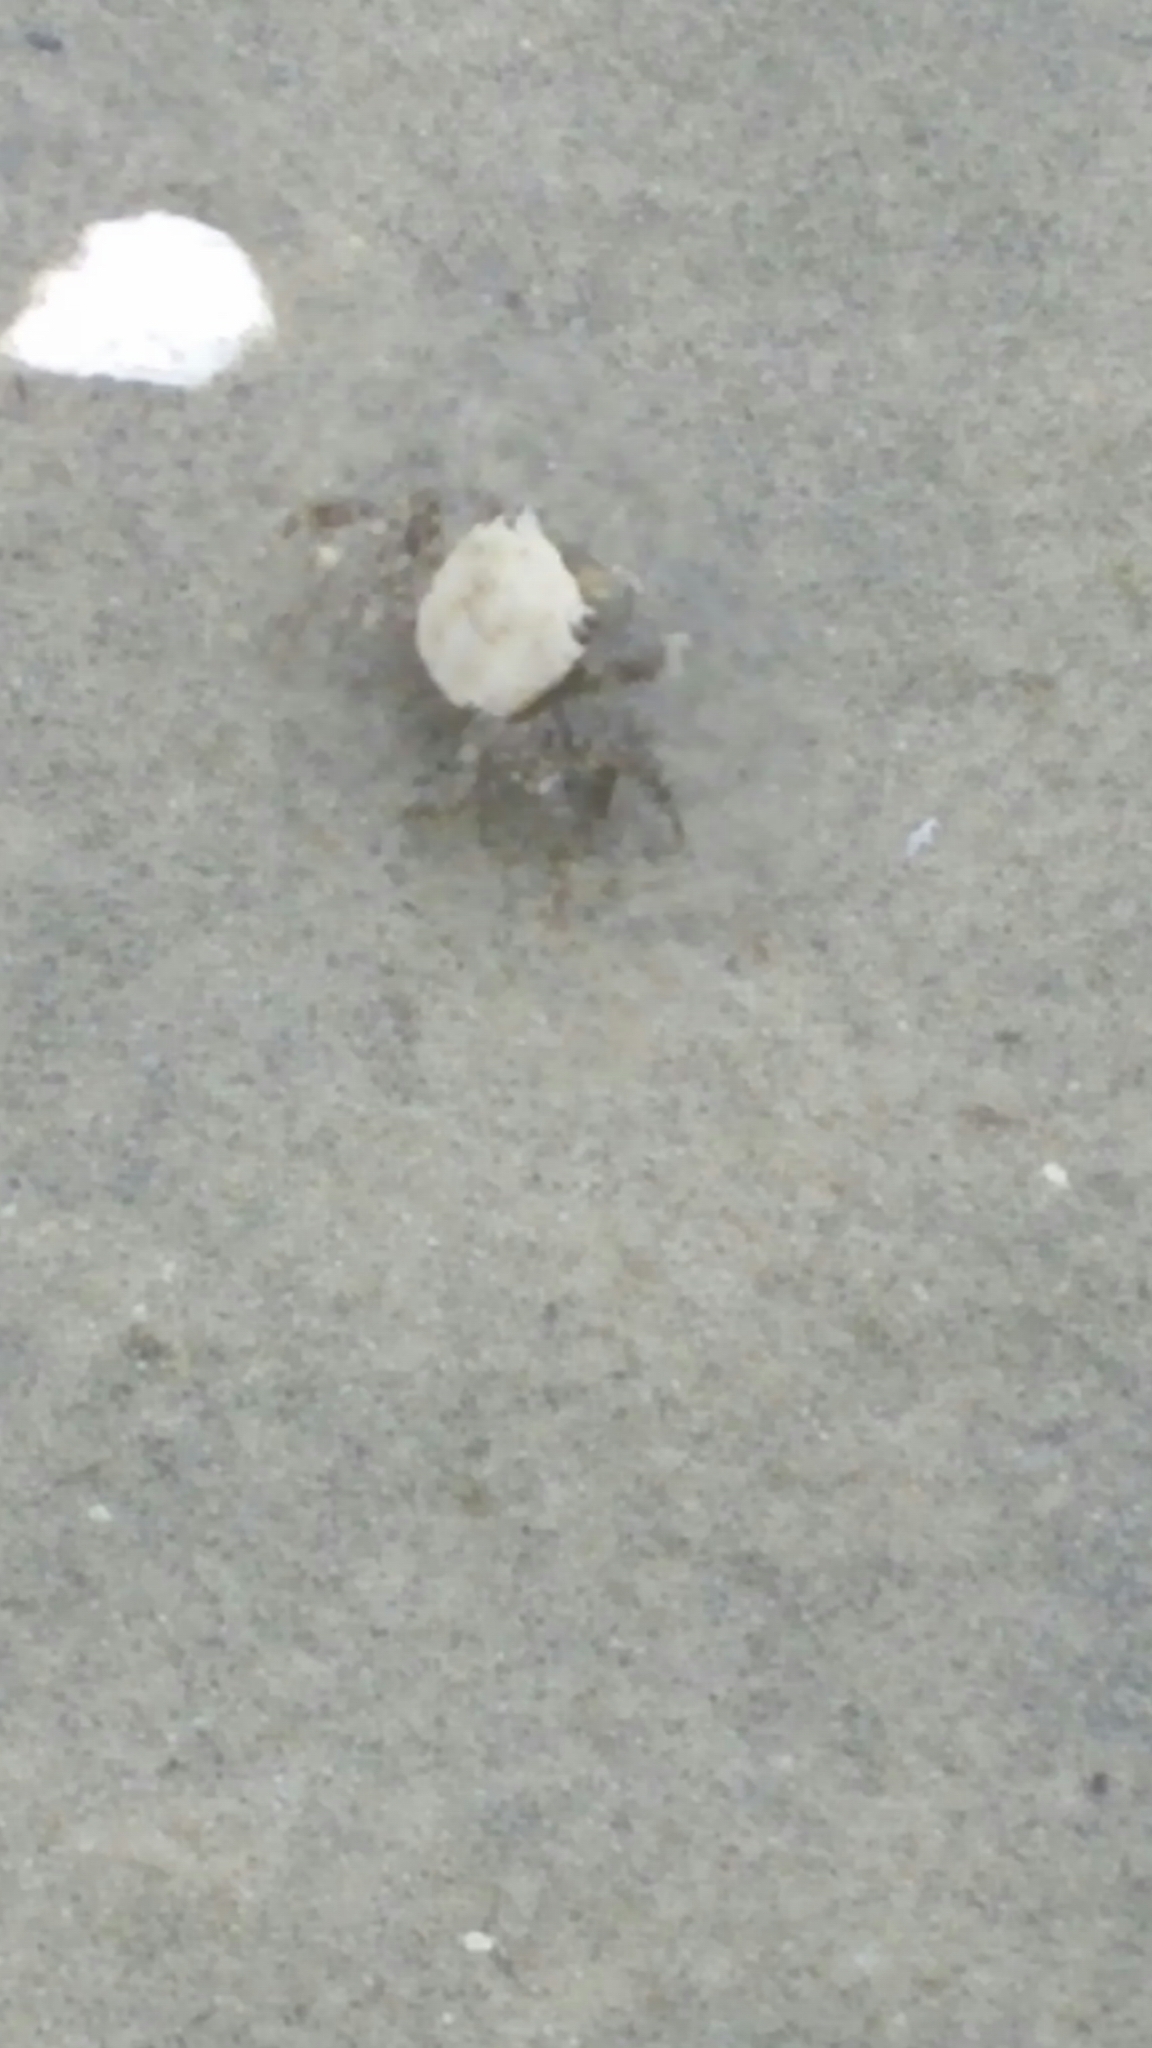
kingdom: Animalia
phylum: Arthropoda
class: Malacostraca
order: Decapoda
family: Varunidae
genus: Hemigrapsus
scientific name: Hemigrapsus oregonensis
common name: Yellow shore crab
